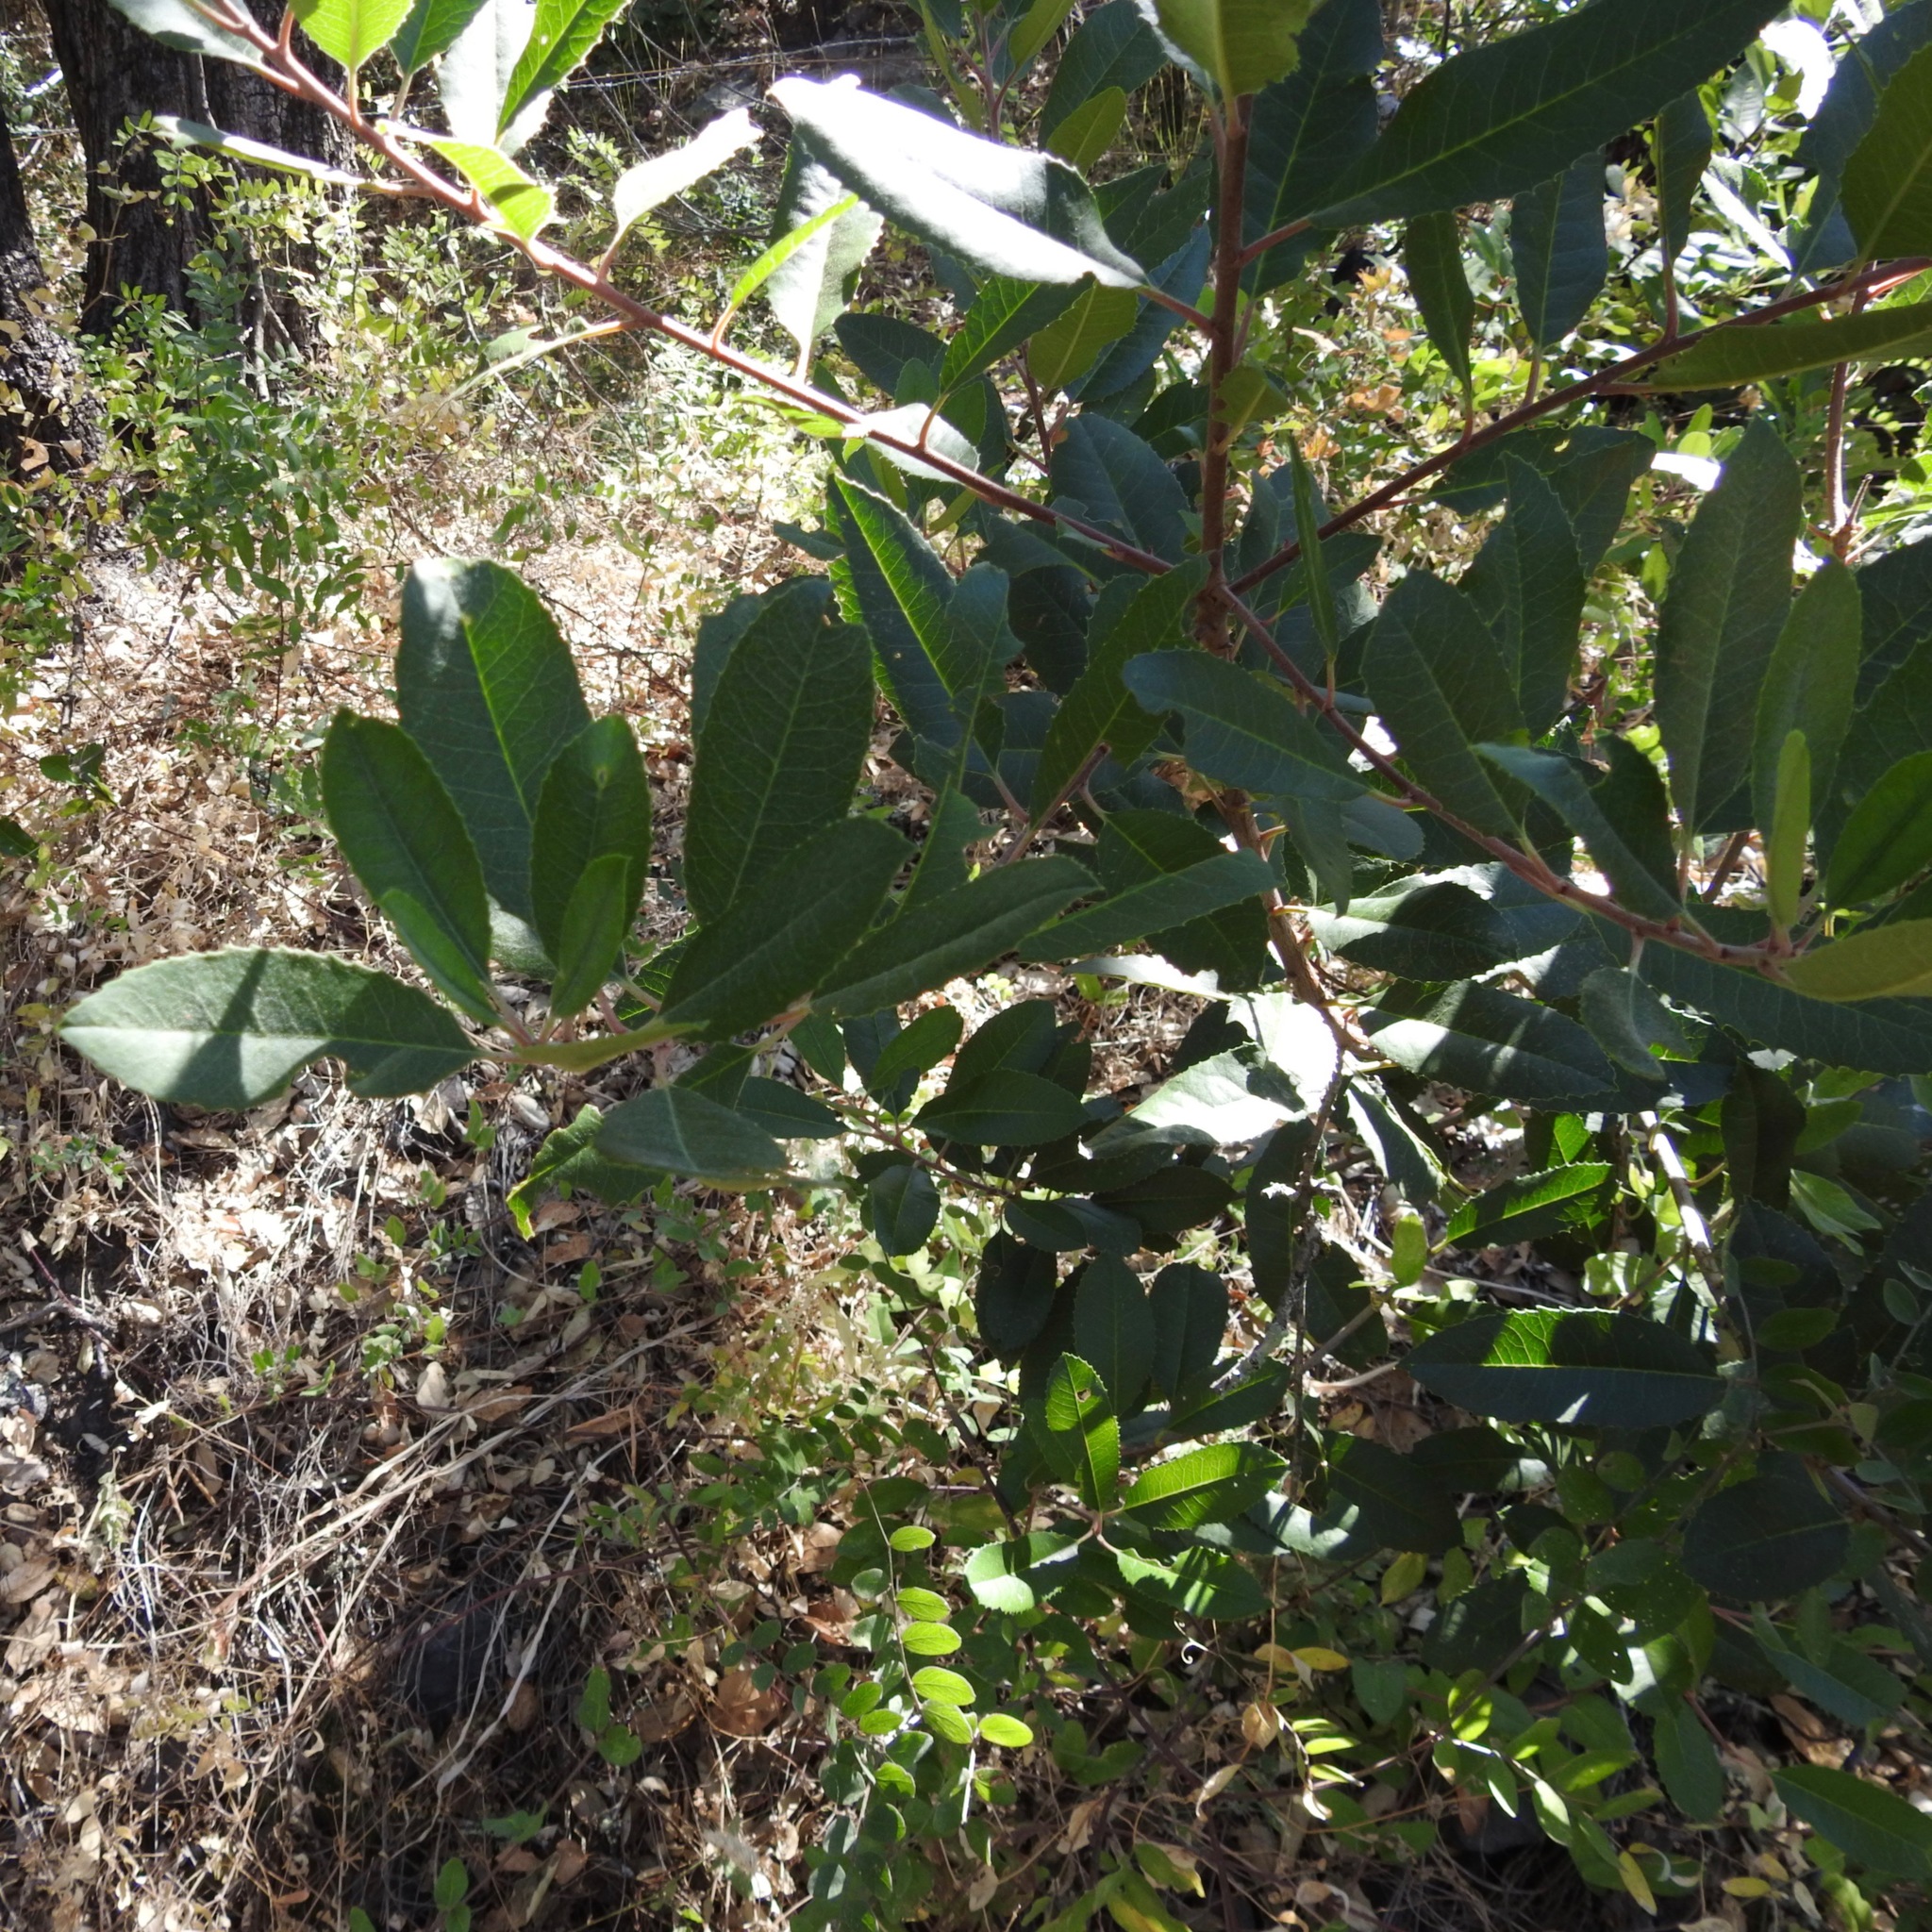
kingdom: Plantae
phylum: Tracheophyta
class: Magnoliopsida
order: Rosales
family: Rosaceae
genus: Heteromeles
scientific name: Heteromeles arbutifolia
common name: California-holly
